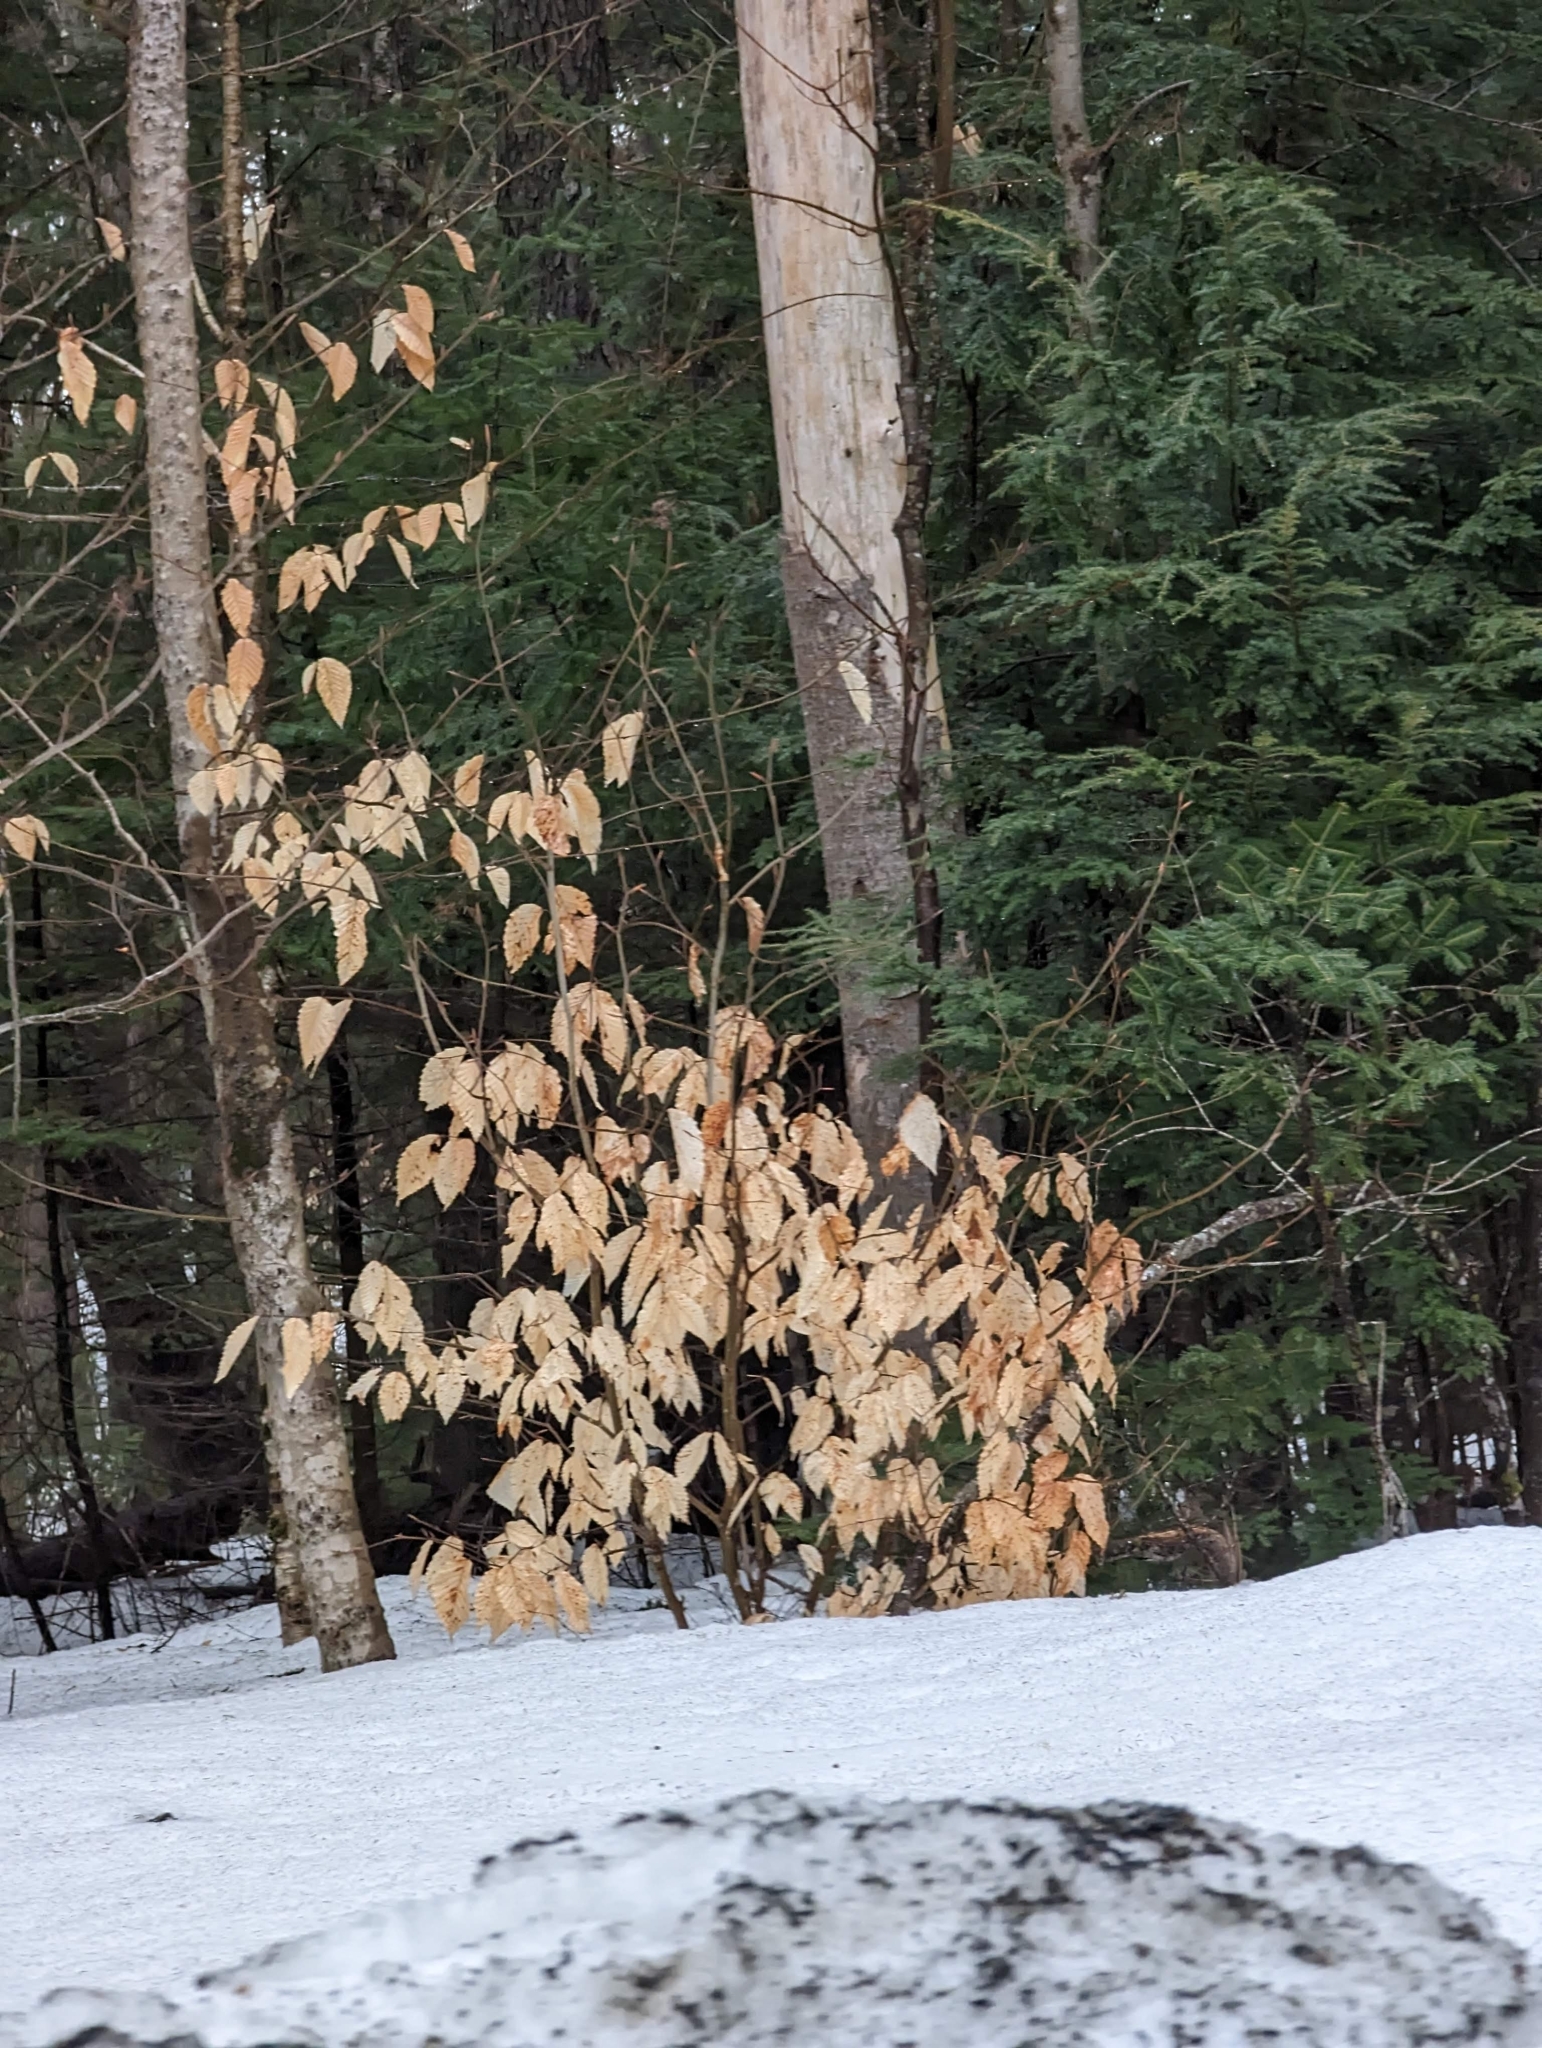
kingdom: Plantae
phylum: Tracheophyta
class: Magnoliopsida
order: Fagales
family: Fagaceae
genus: Fagus
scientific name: Fagus grandifolia
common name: American beech
